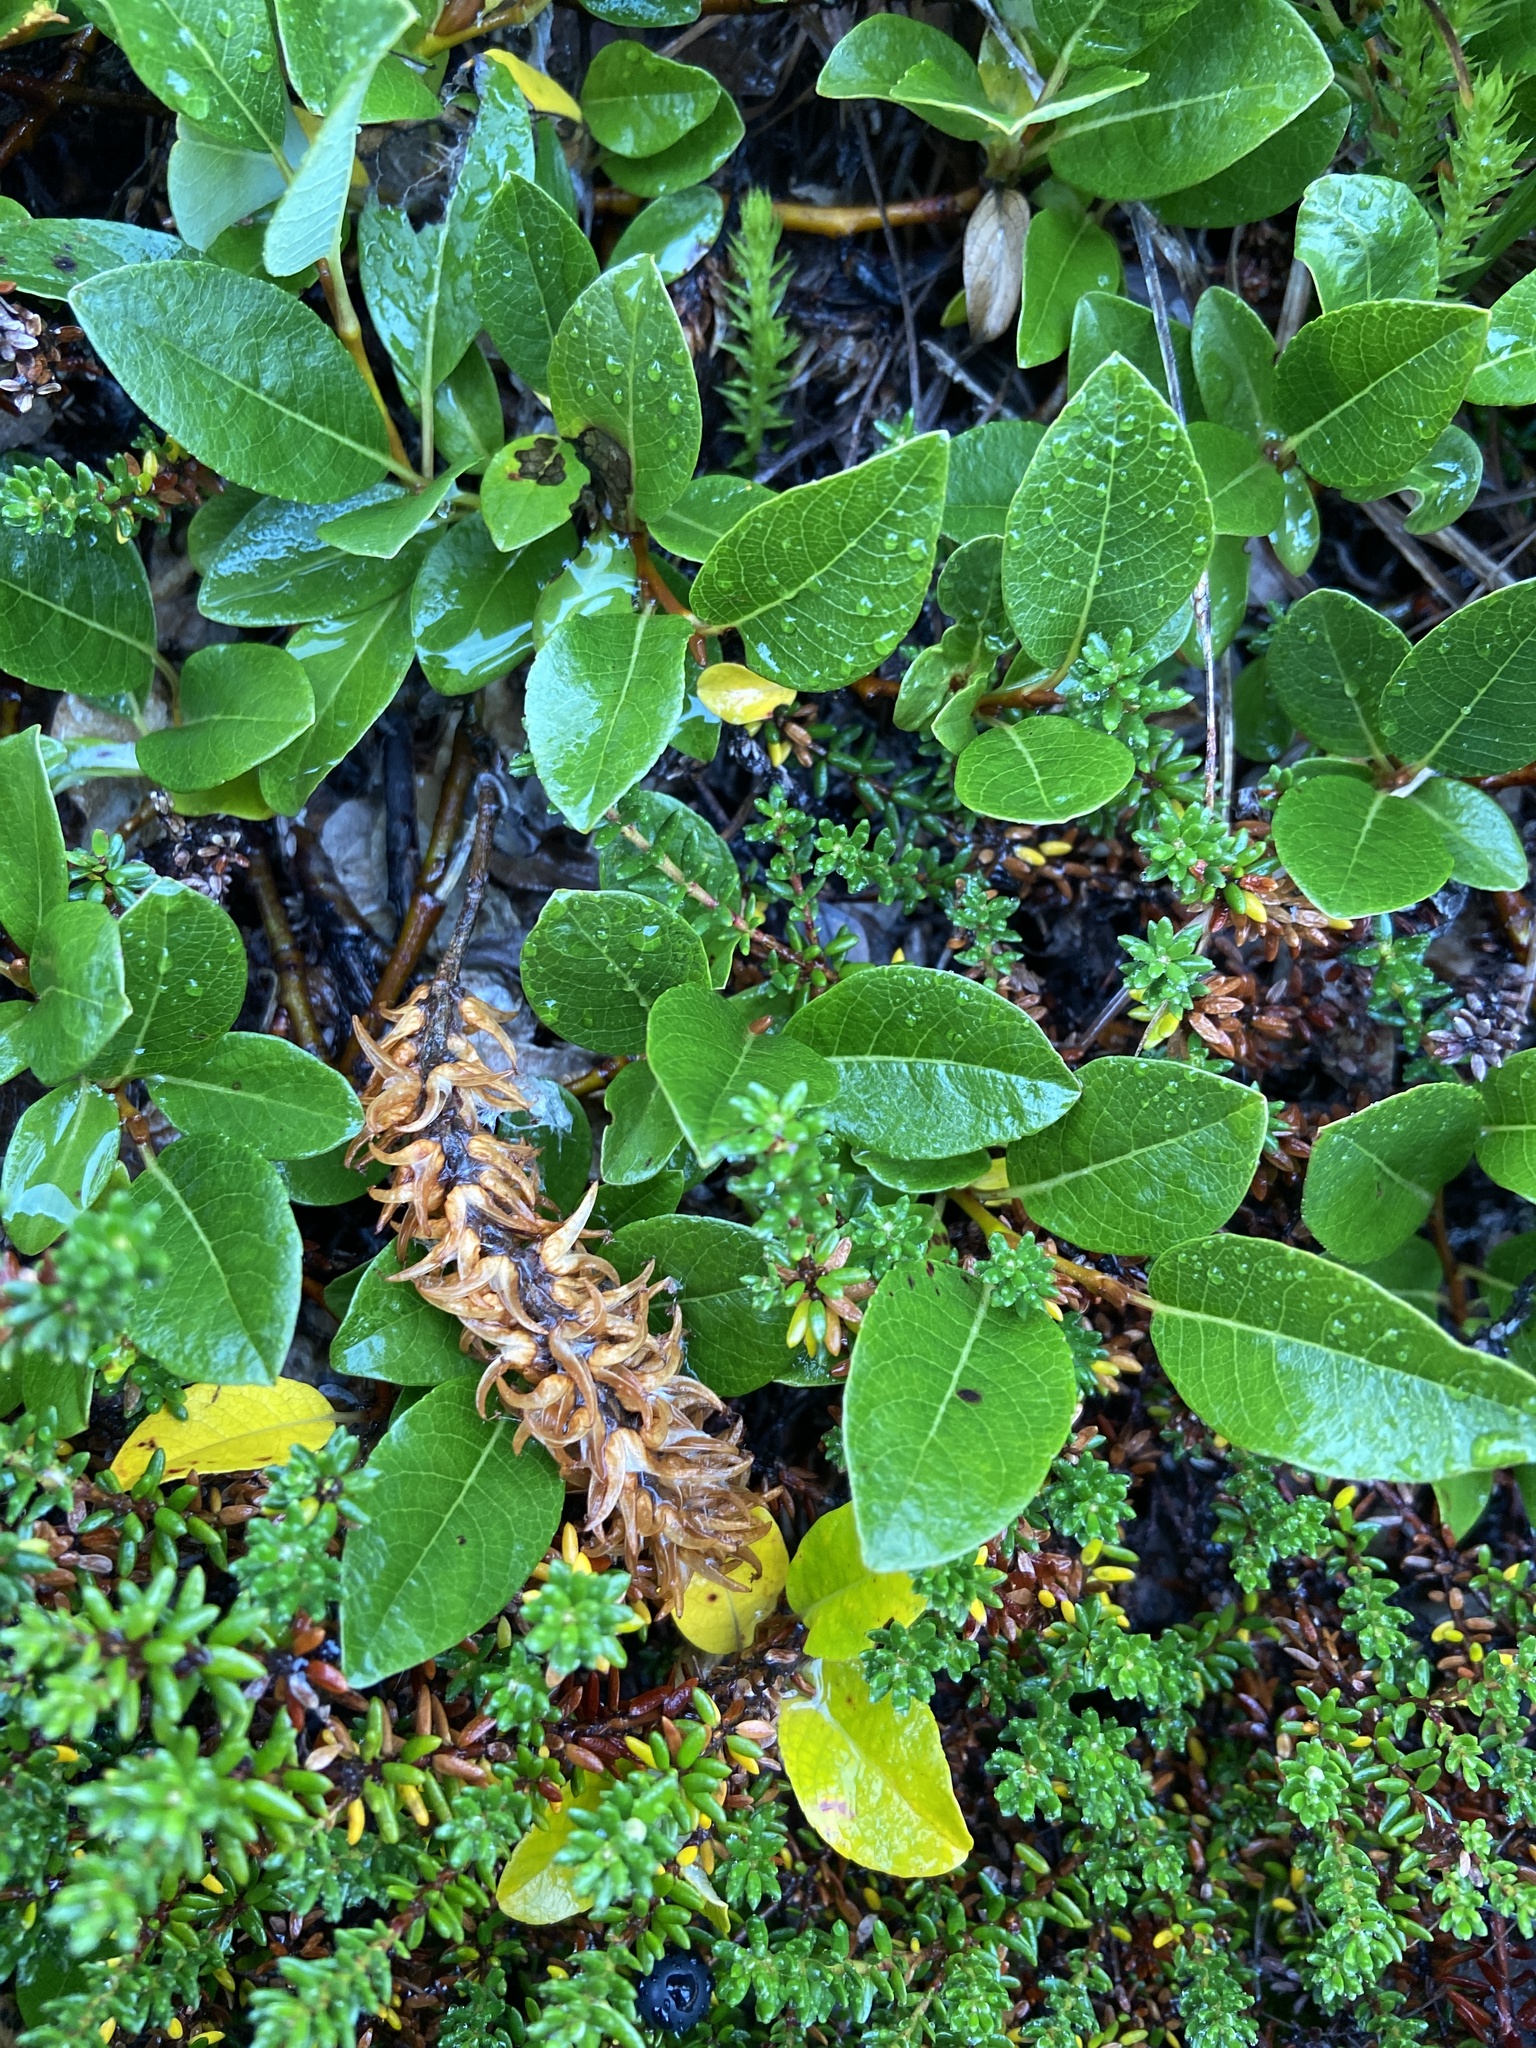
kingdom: Plantae
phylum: Tracheophyta
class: Magnoliopsida
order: Malpighiales
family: Salicaceae
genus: Salix
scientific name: Salix arctophila
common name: Greenland willow
